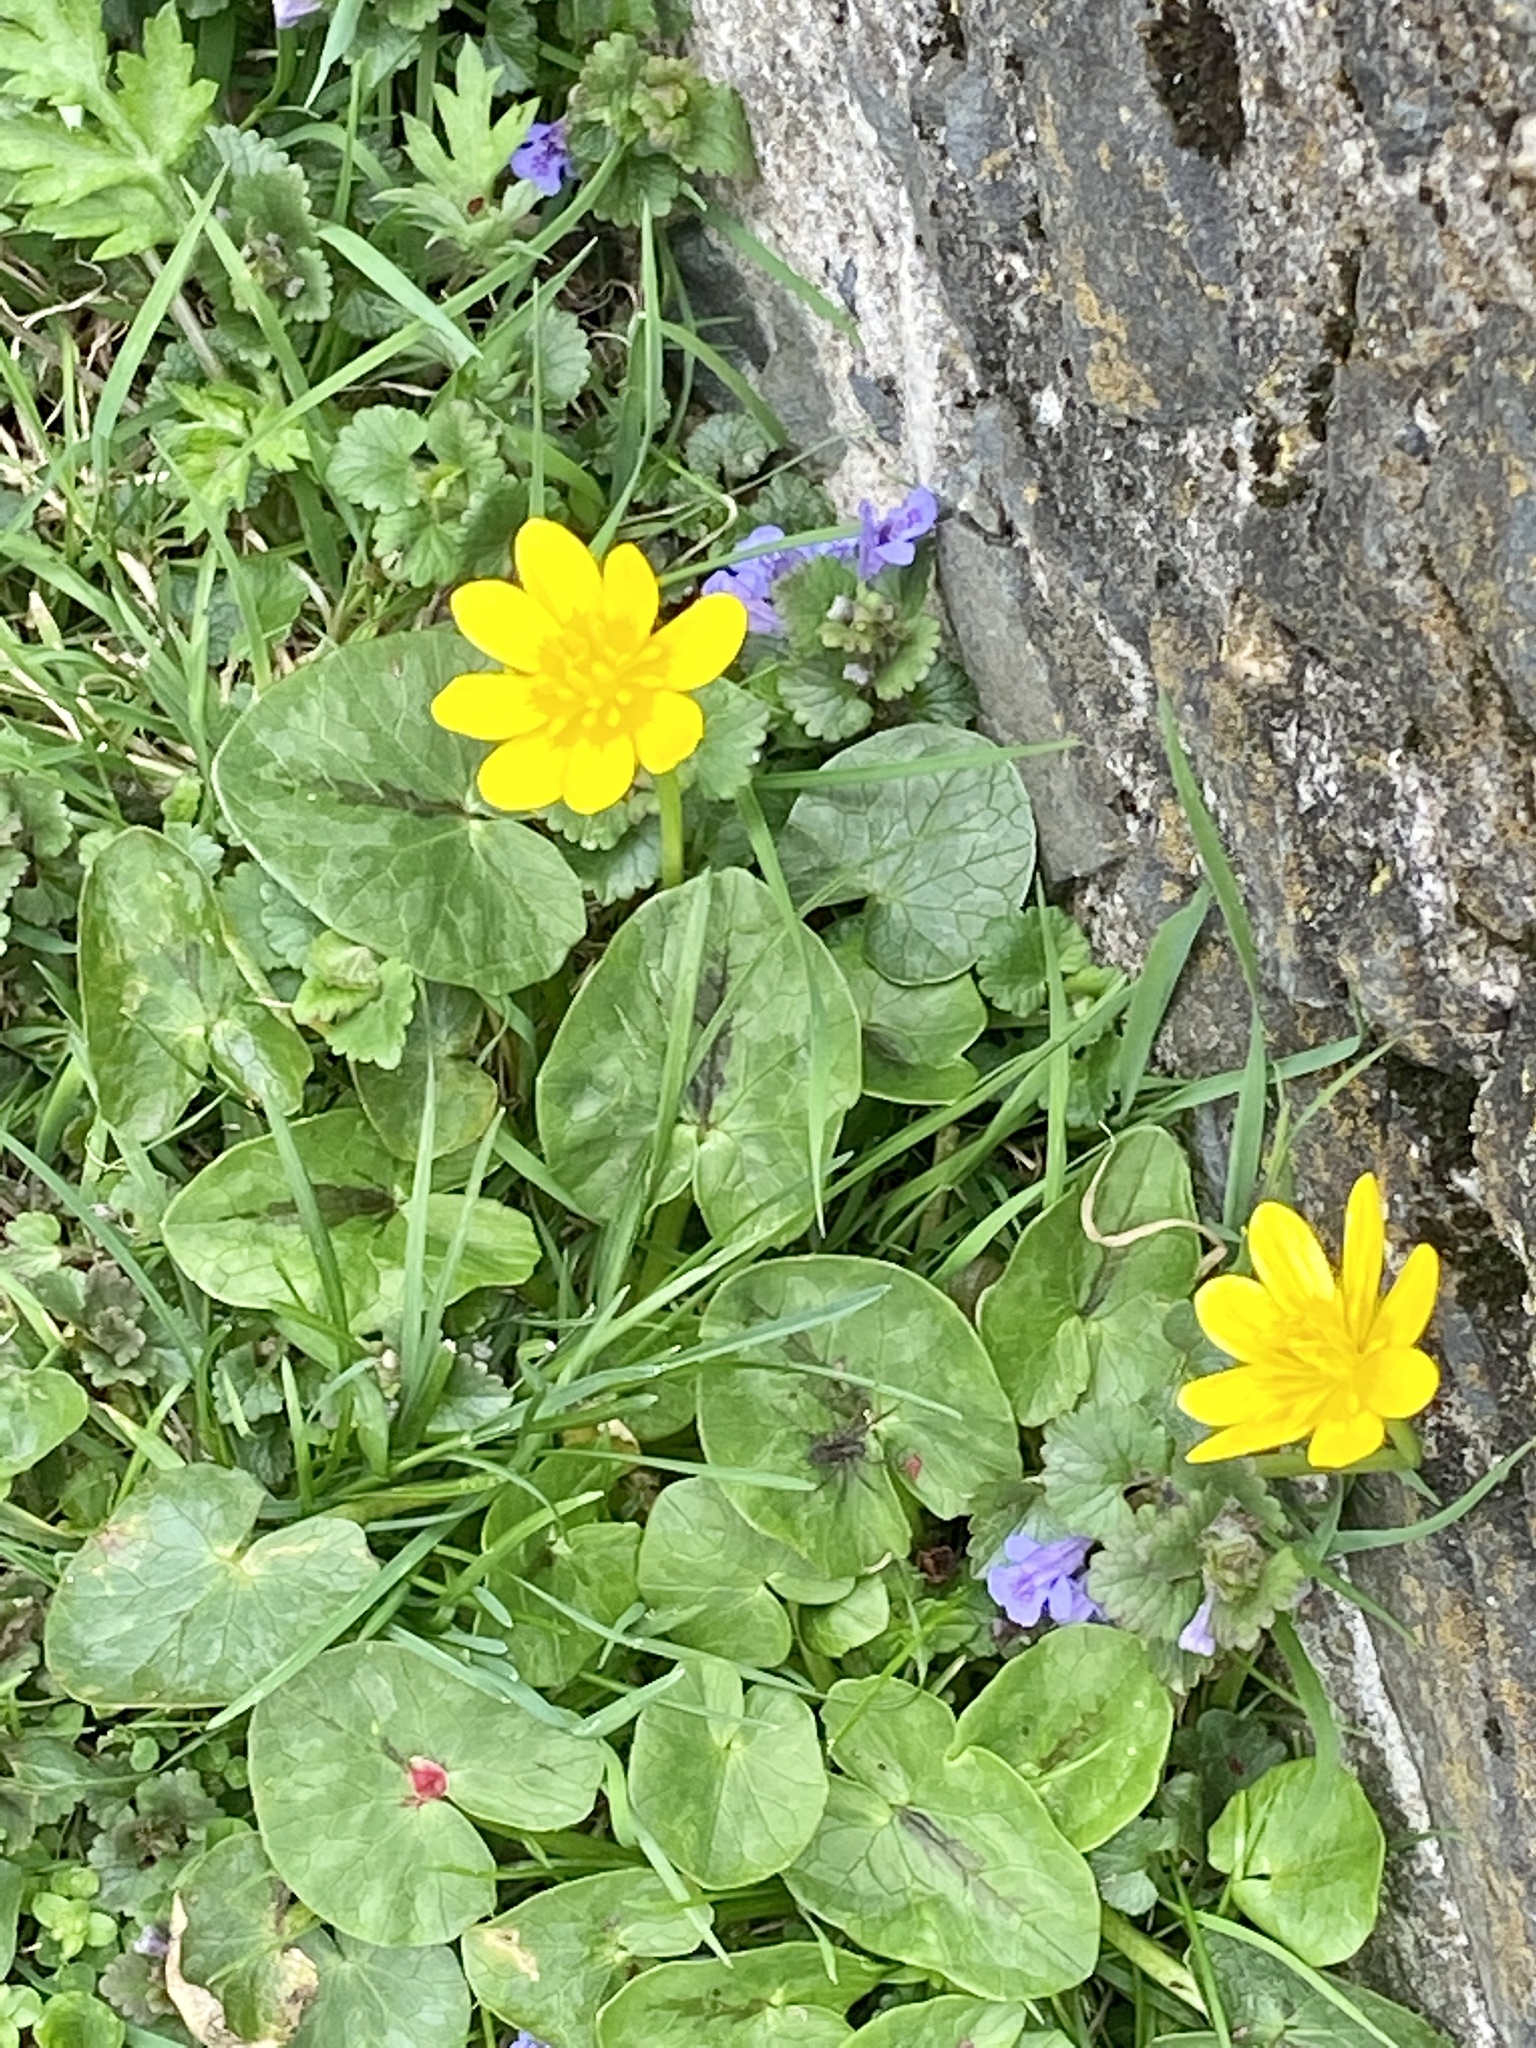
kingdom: Plantae
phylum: Tracheophyta
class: Magnoliopsida
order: Ranunculales
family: Ranunculaceae
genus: Ficaria
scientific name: Ficaria verna
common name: Lesser celandine
